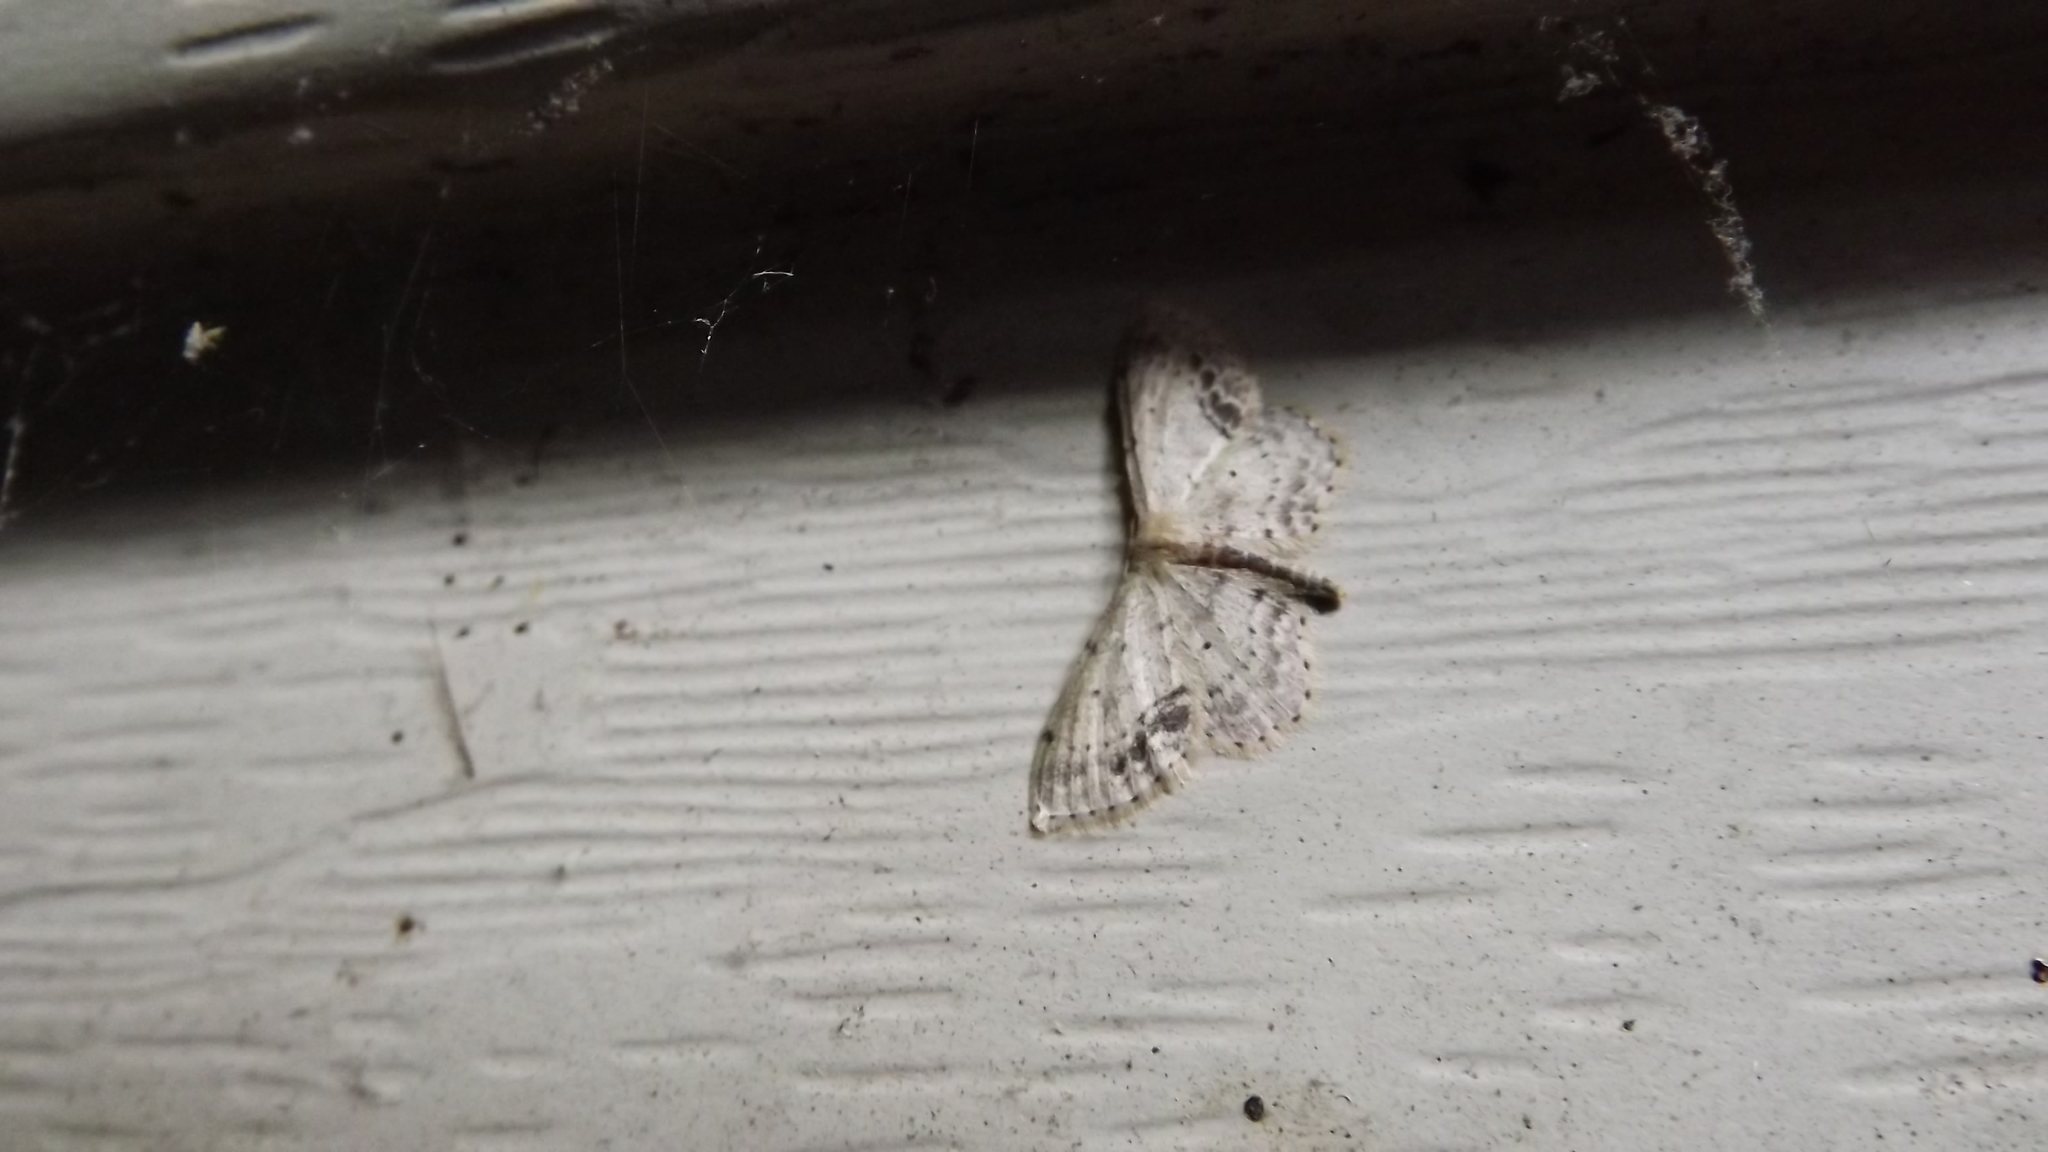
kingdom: Animalia
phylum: Arthropoda
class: Insecta
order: Lepidoptera
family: Geometridae
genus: Idaea
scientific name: Idaea dimidiata
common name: Single-dotted wave
